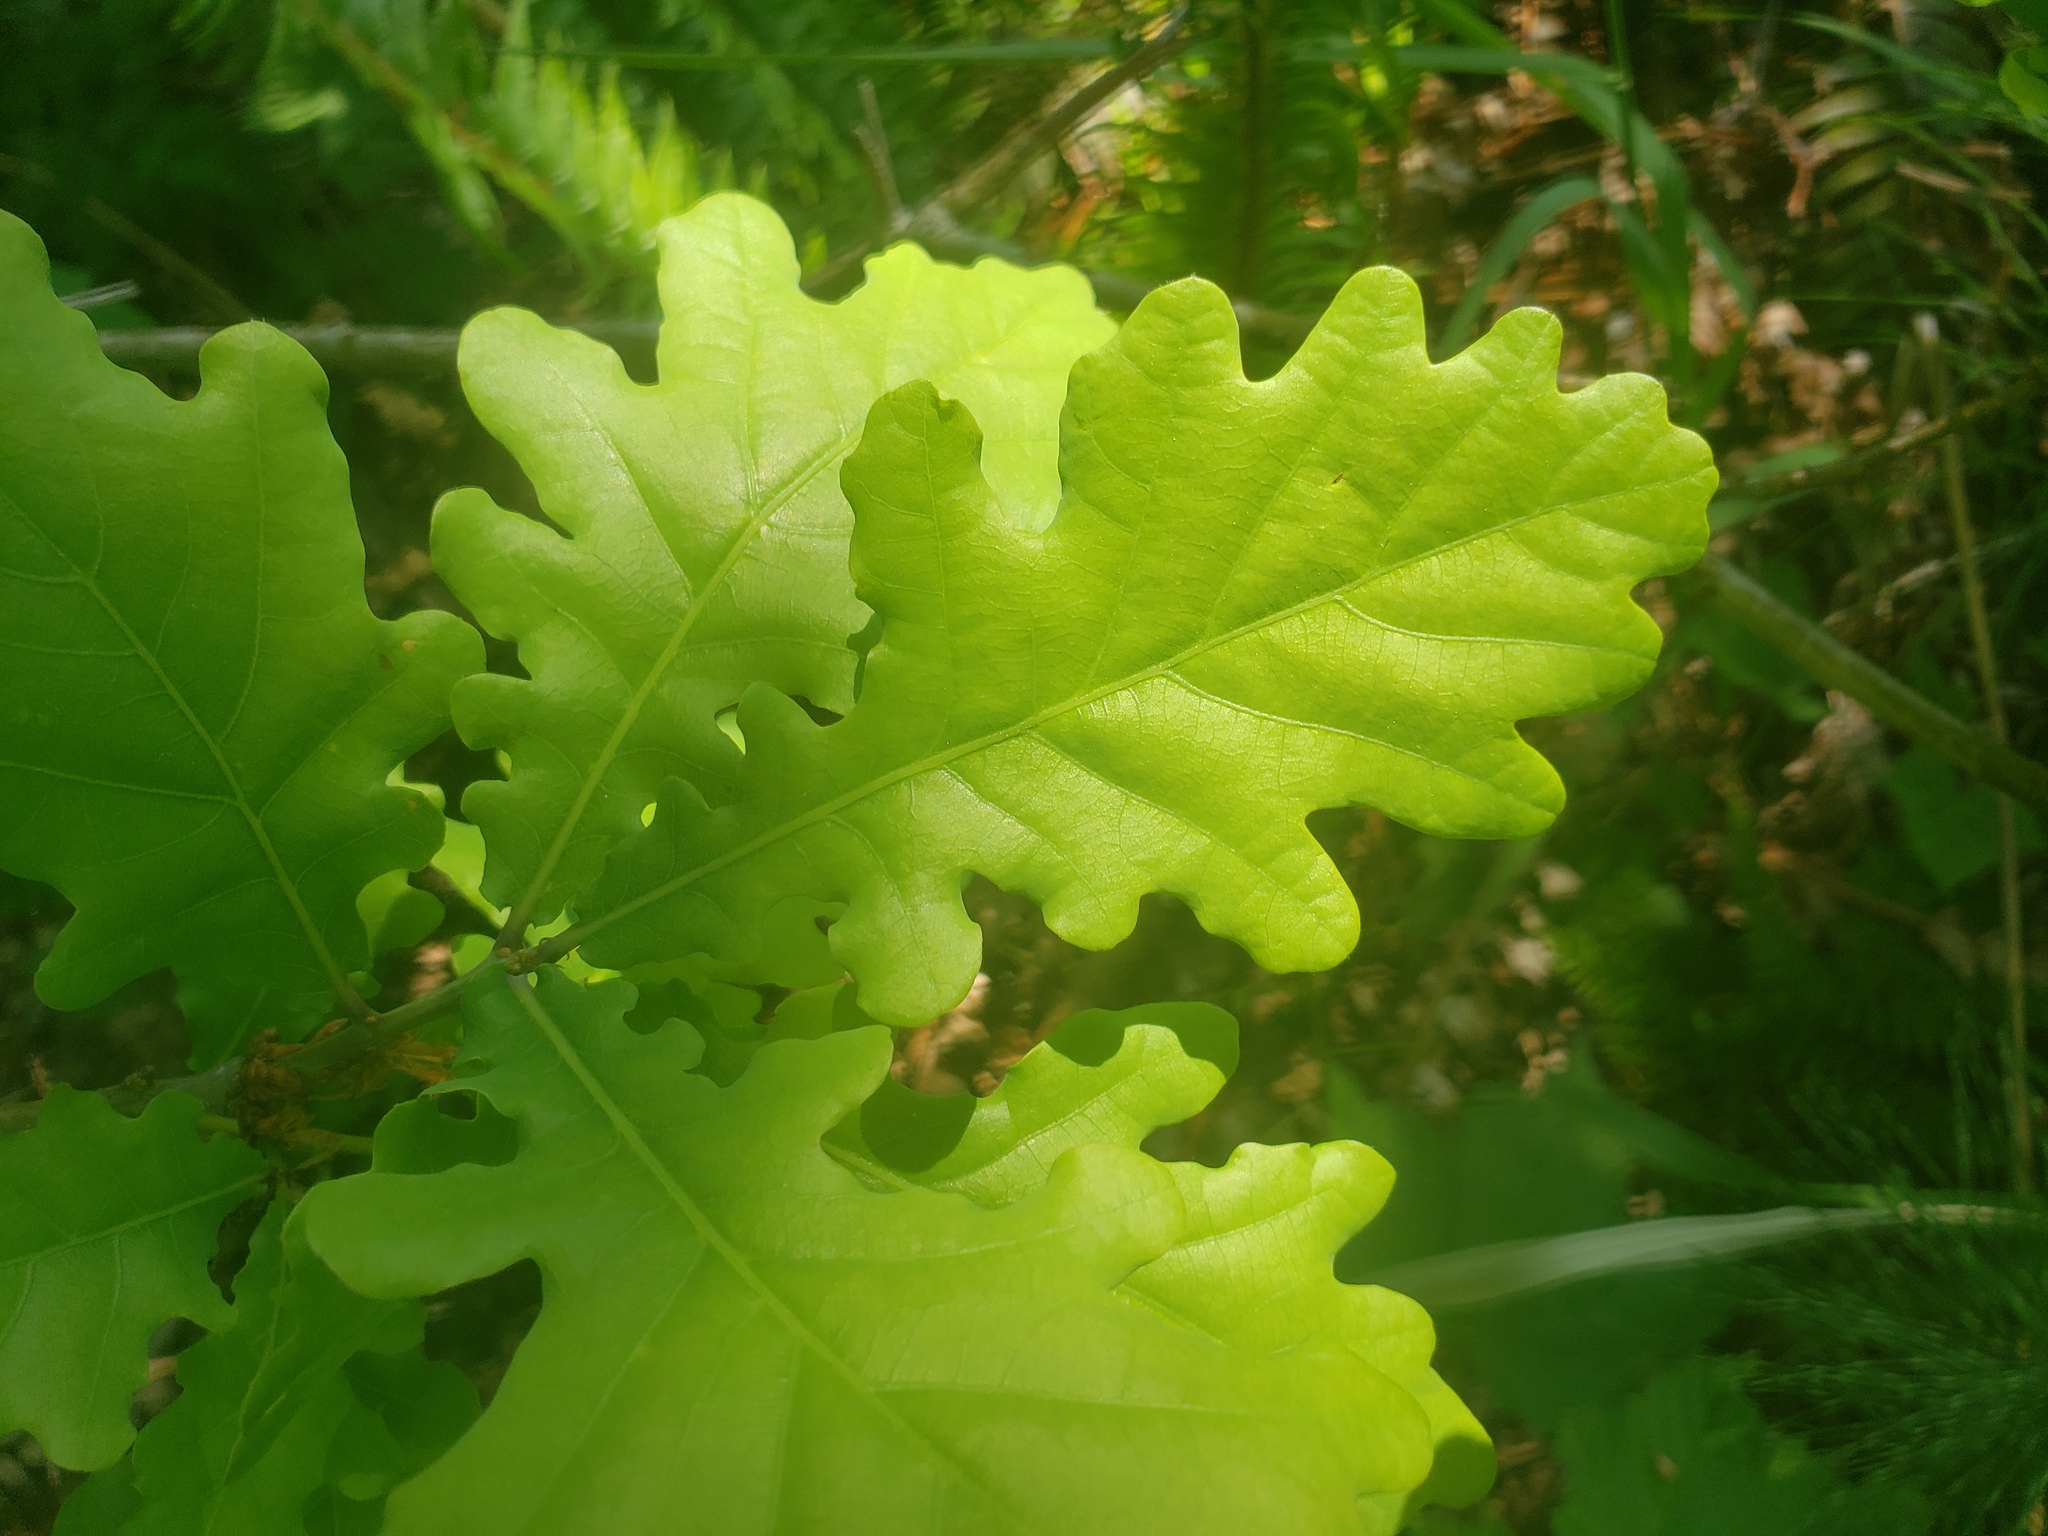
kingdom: Plantae
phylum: Tracheophyta
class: Magnoliopsida
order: Fagales
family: Fagaceae
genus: Quercus
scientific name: Quercus robur
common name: Pedunculate oak
